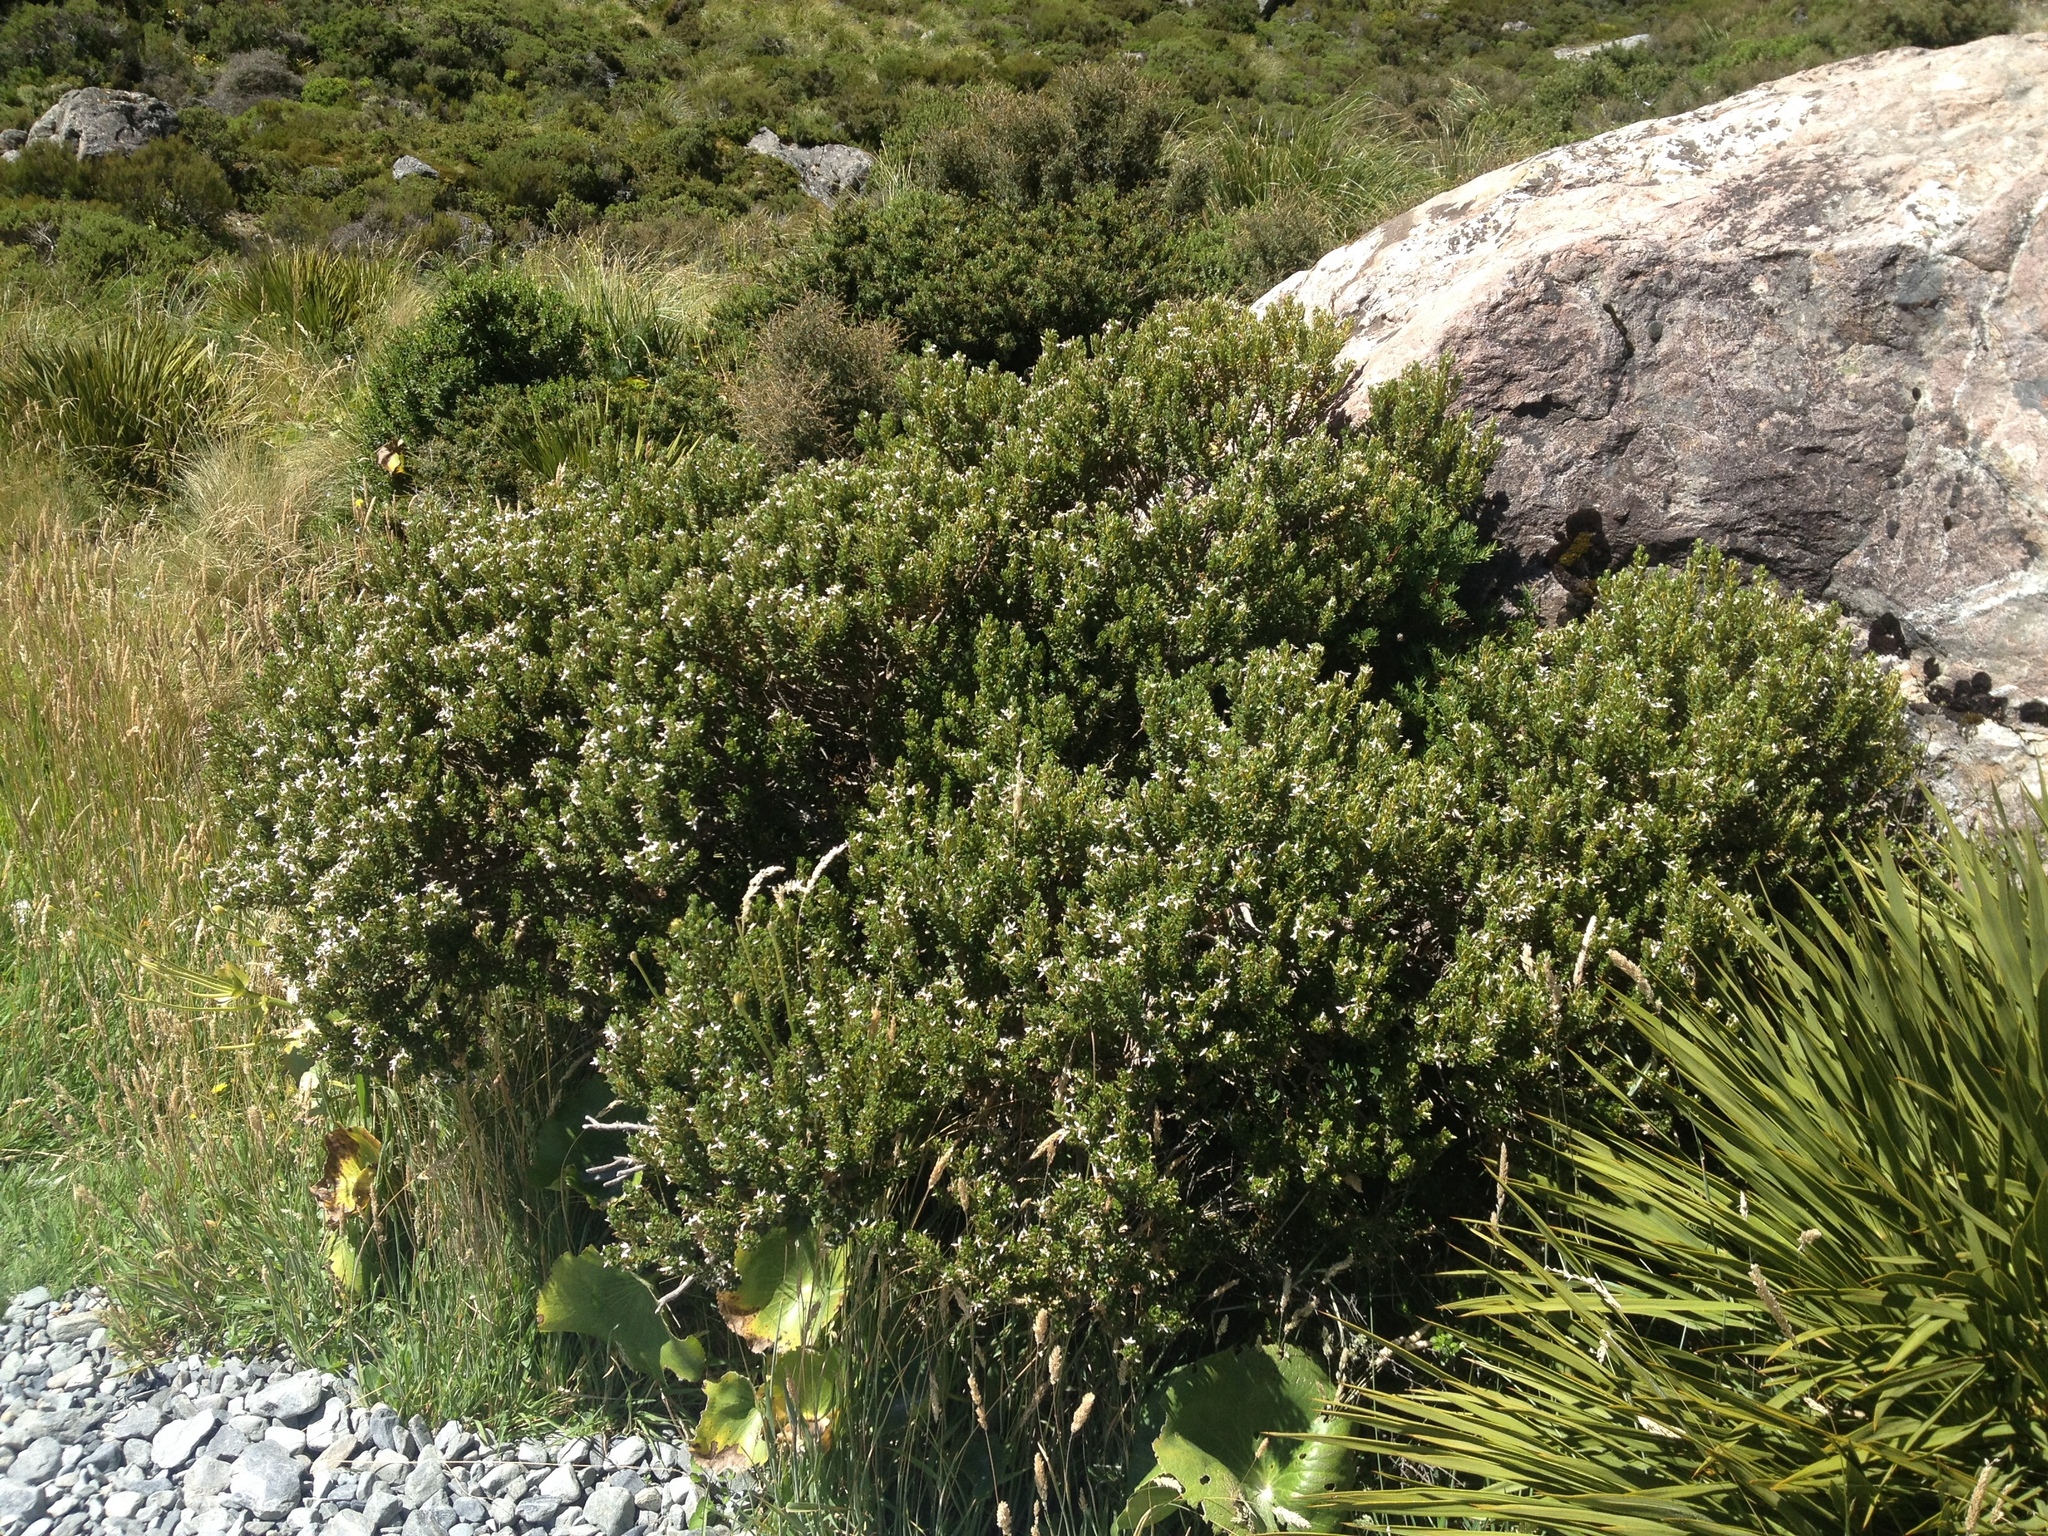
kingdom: Plantae
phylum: Tracheophyta
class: Magnoliopsida
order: Asterales
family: Asteraceae
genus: Olearia
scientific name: Olearia nummularifolia
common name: Sticky daisybush
